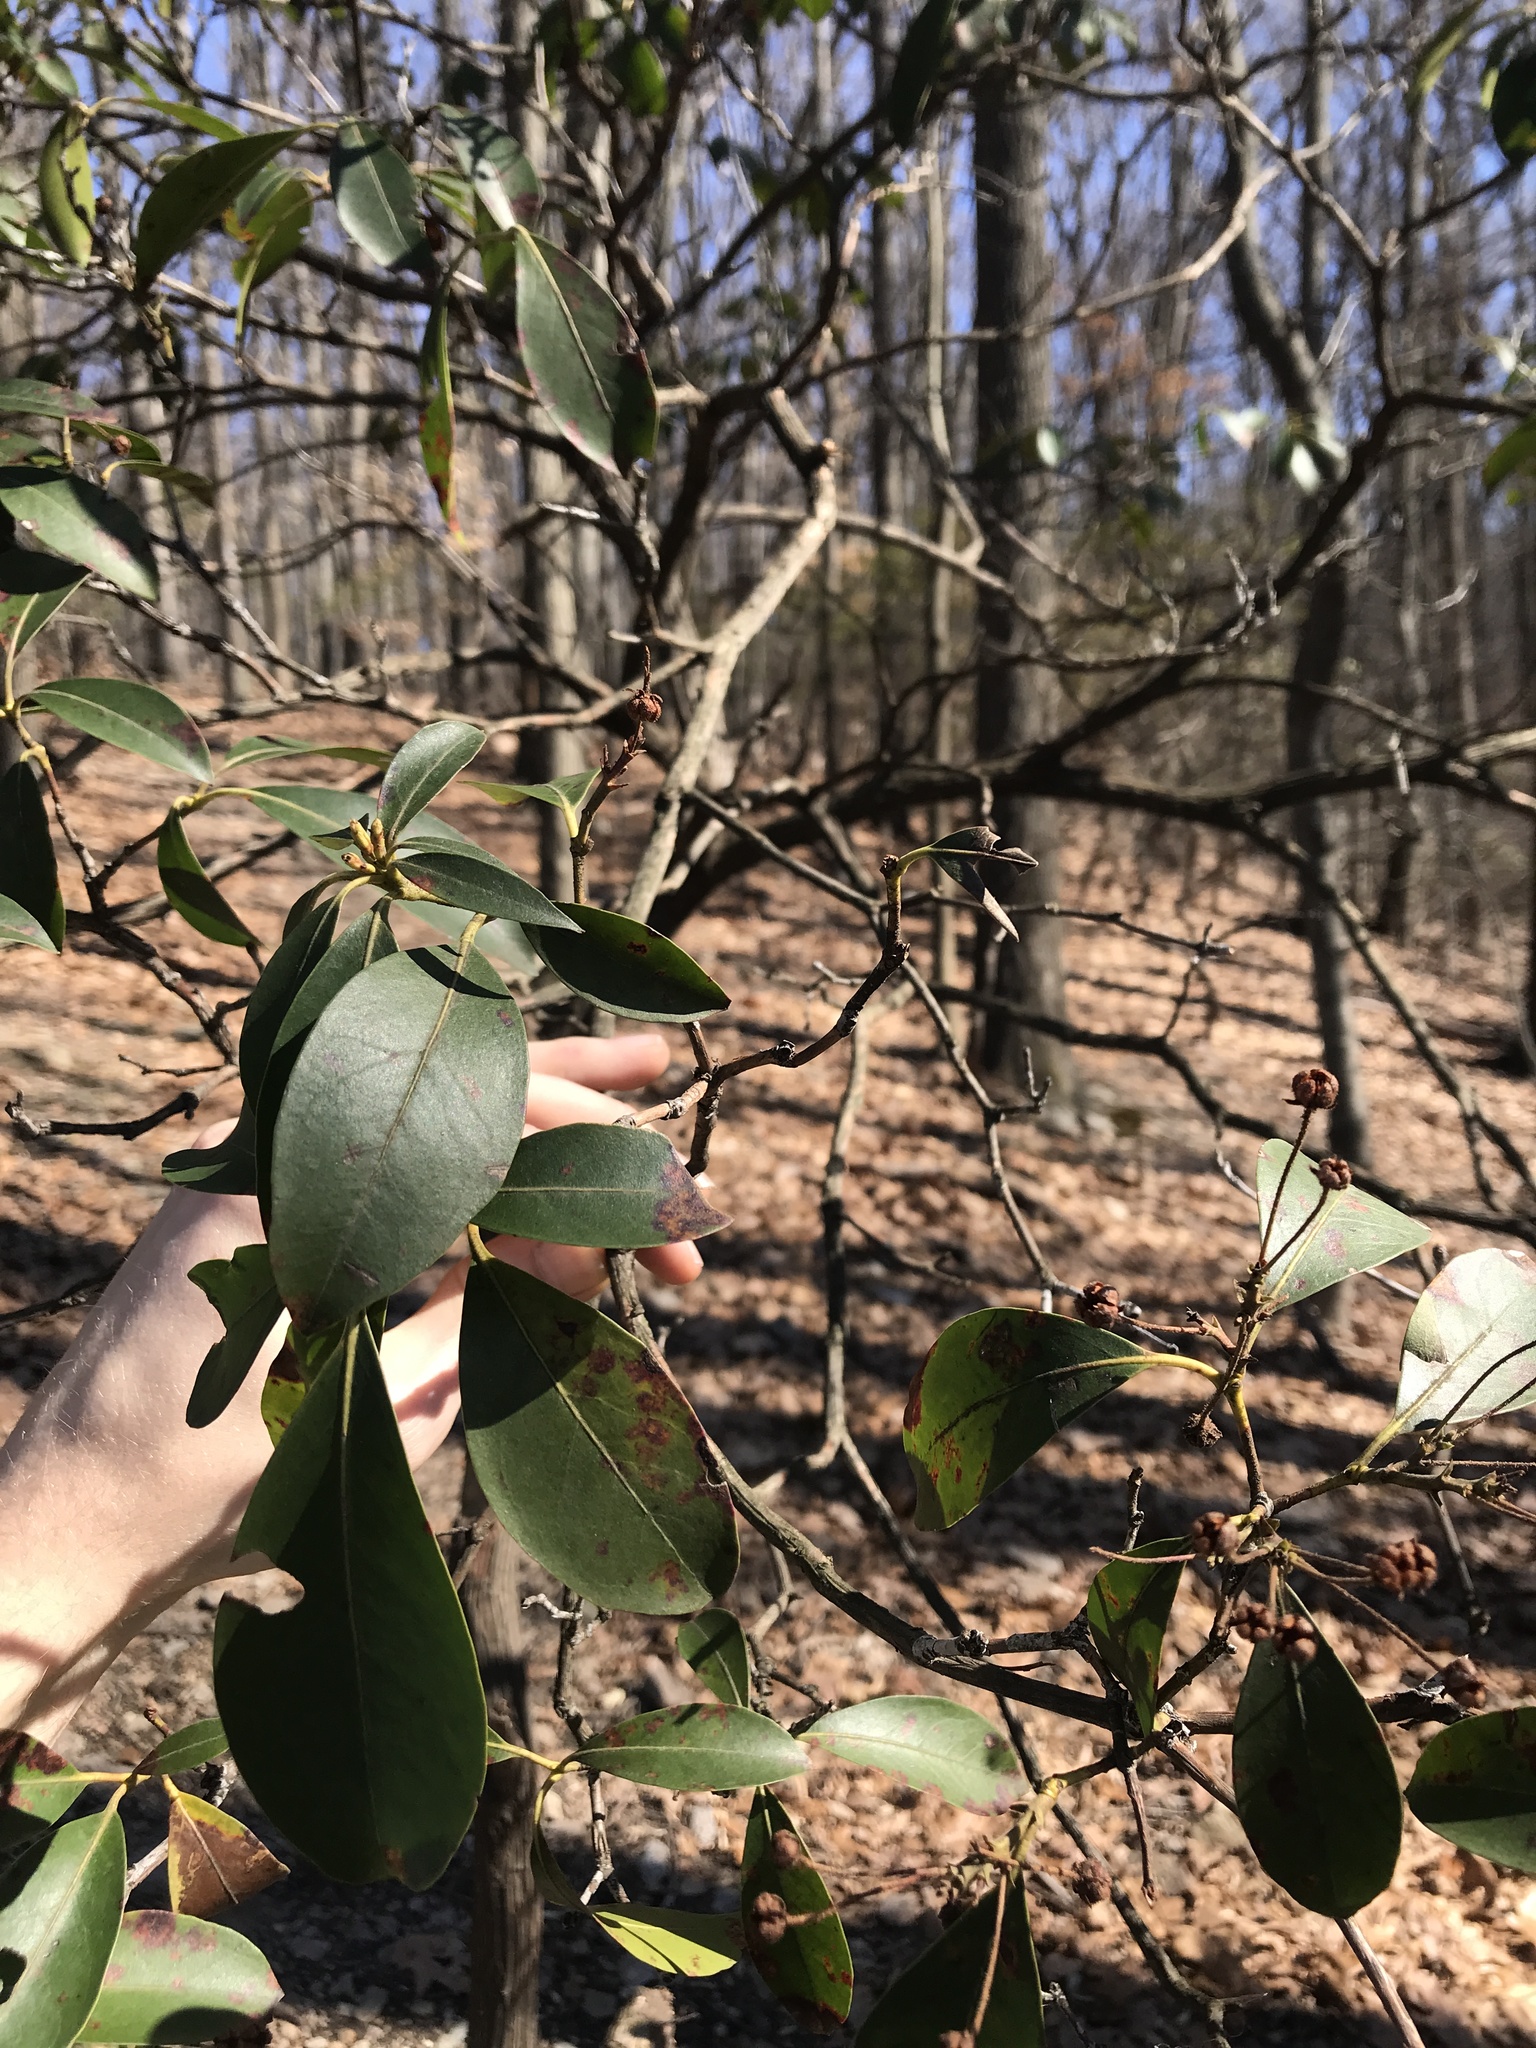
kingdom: Plantae
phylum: Tracheophyta
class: Magnoliopsida
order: Ericales
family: Ericaceae
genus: Kalmia
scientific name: Kalmia latifolia
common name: Mountain-laurel
